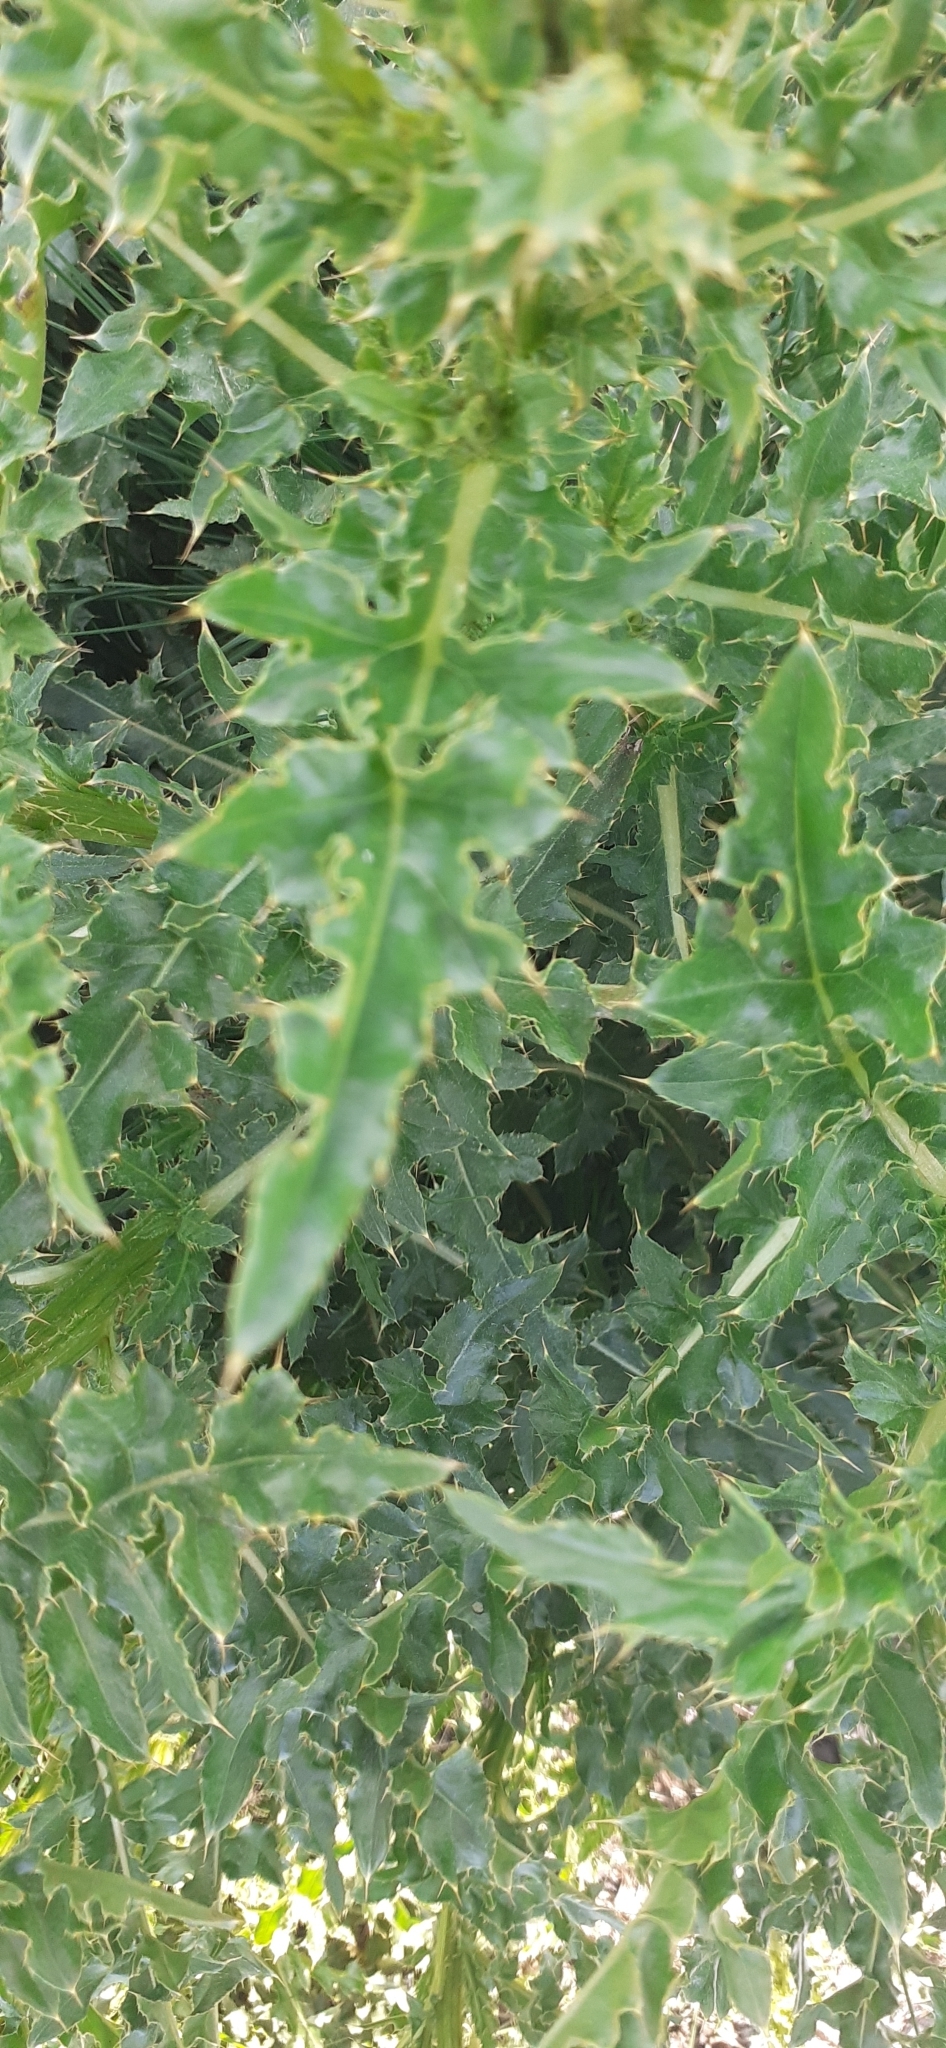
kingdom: Plantae
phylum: Tracheophyta
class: Magnoliopsida
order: Asterales
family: Asteraceae
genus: Cirsium
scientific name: Cirsium arvense
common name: Creeping thistle
